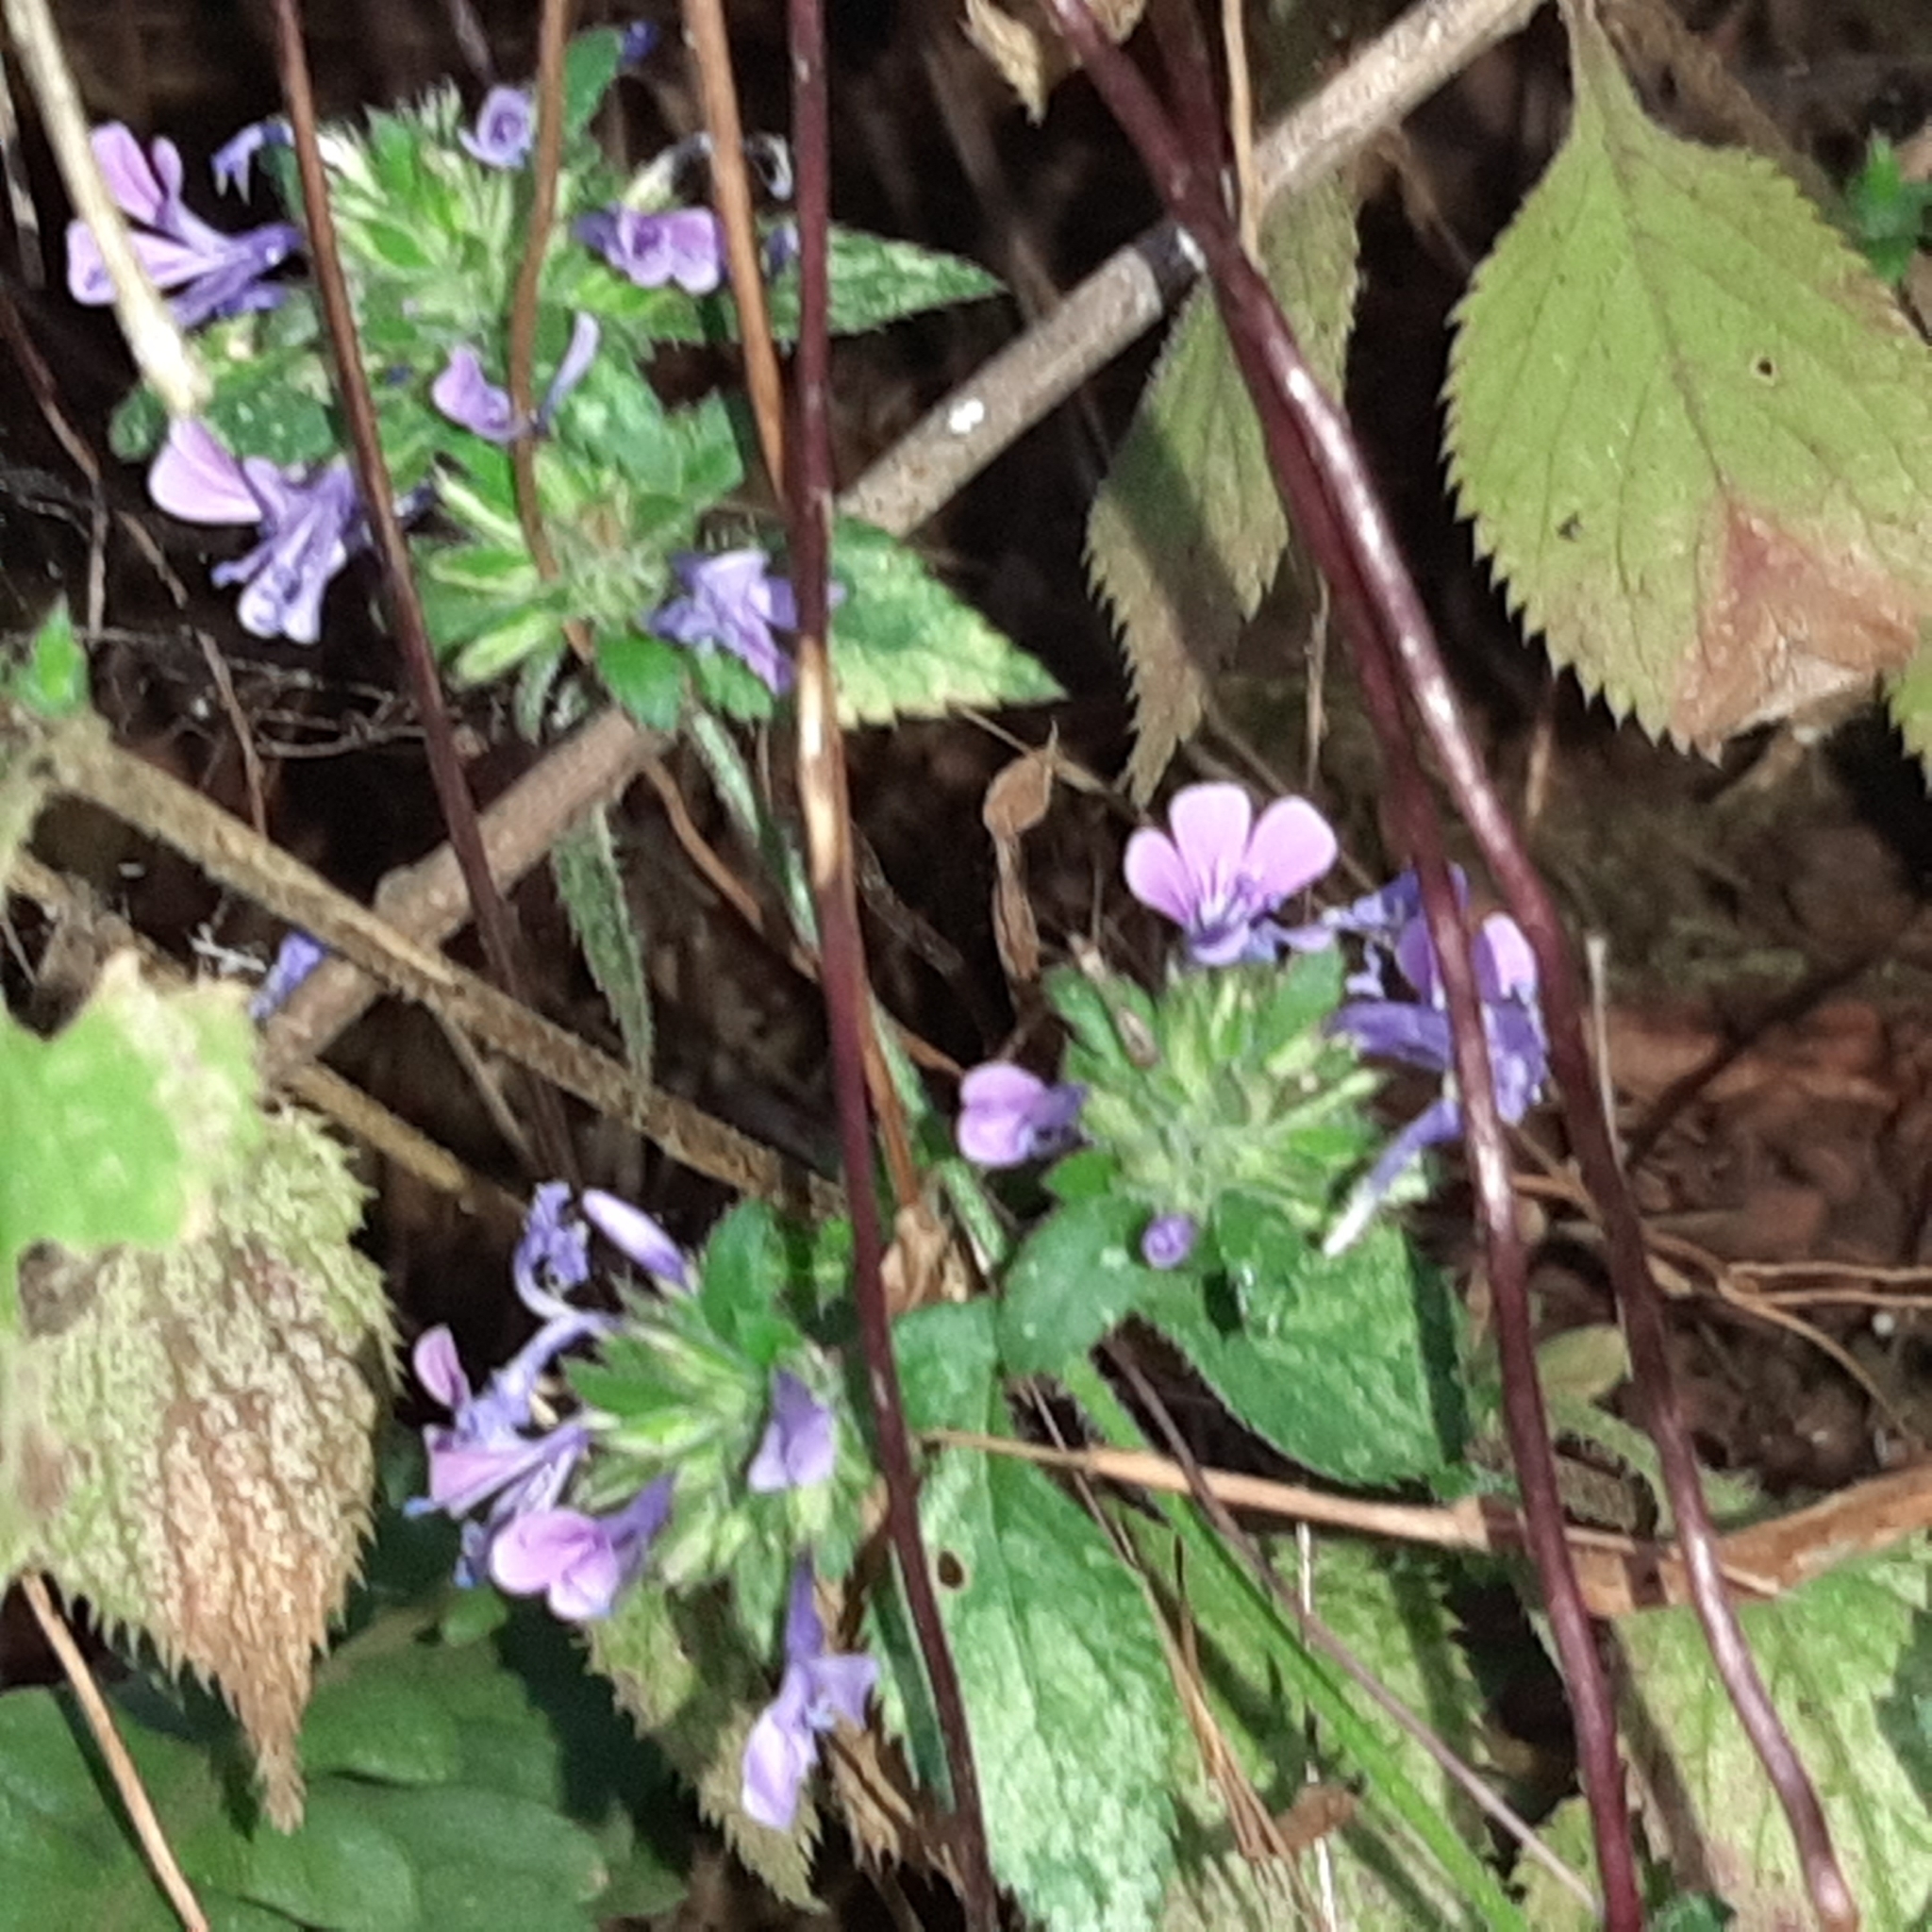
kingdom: Plantae
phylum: Tracheophyta
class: Magnoliopsida
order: Ericales
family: Polemoniaceae
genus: Loeselia
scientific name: Loeselia glandulosa
